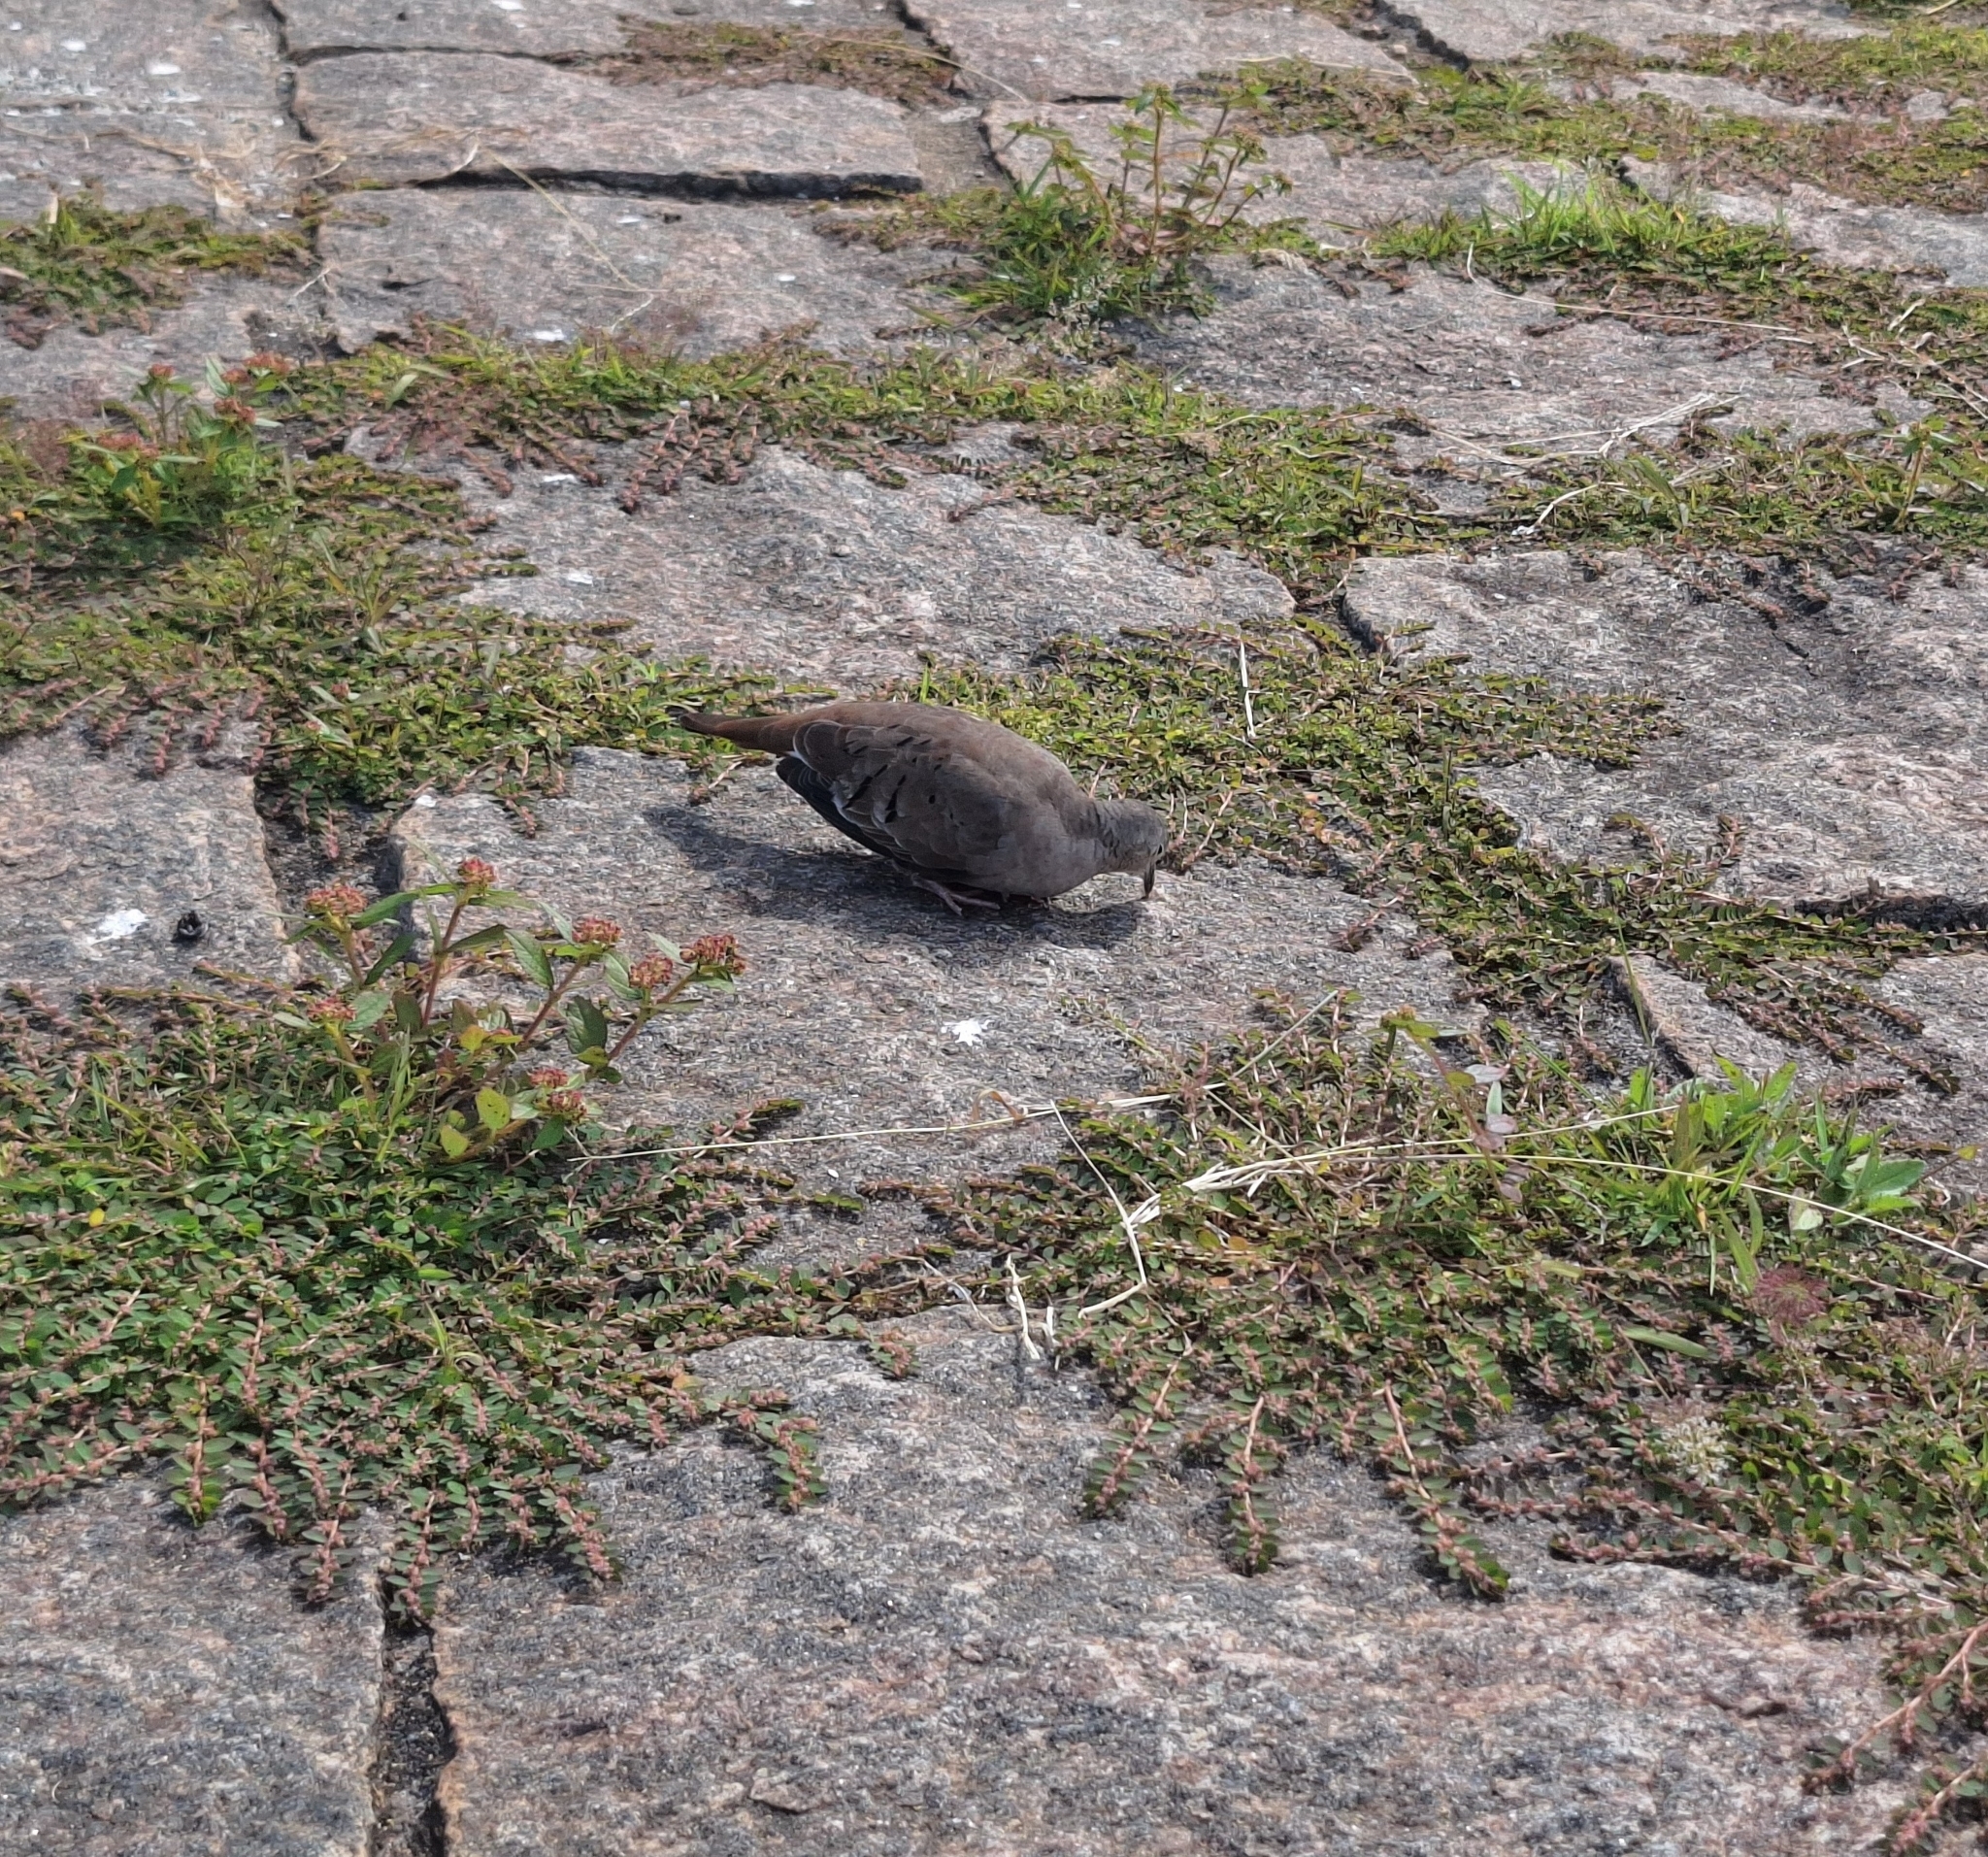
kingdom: Animalia
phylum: Chordata
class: Aves
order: Columbiformes
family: Columbidae
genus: Columbina
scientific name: Columbina talpacoti
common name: Ruddy ground dove
